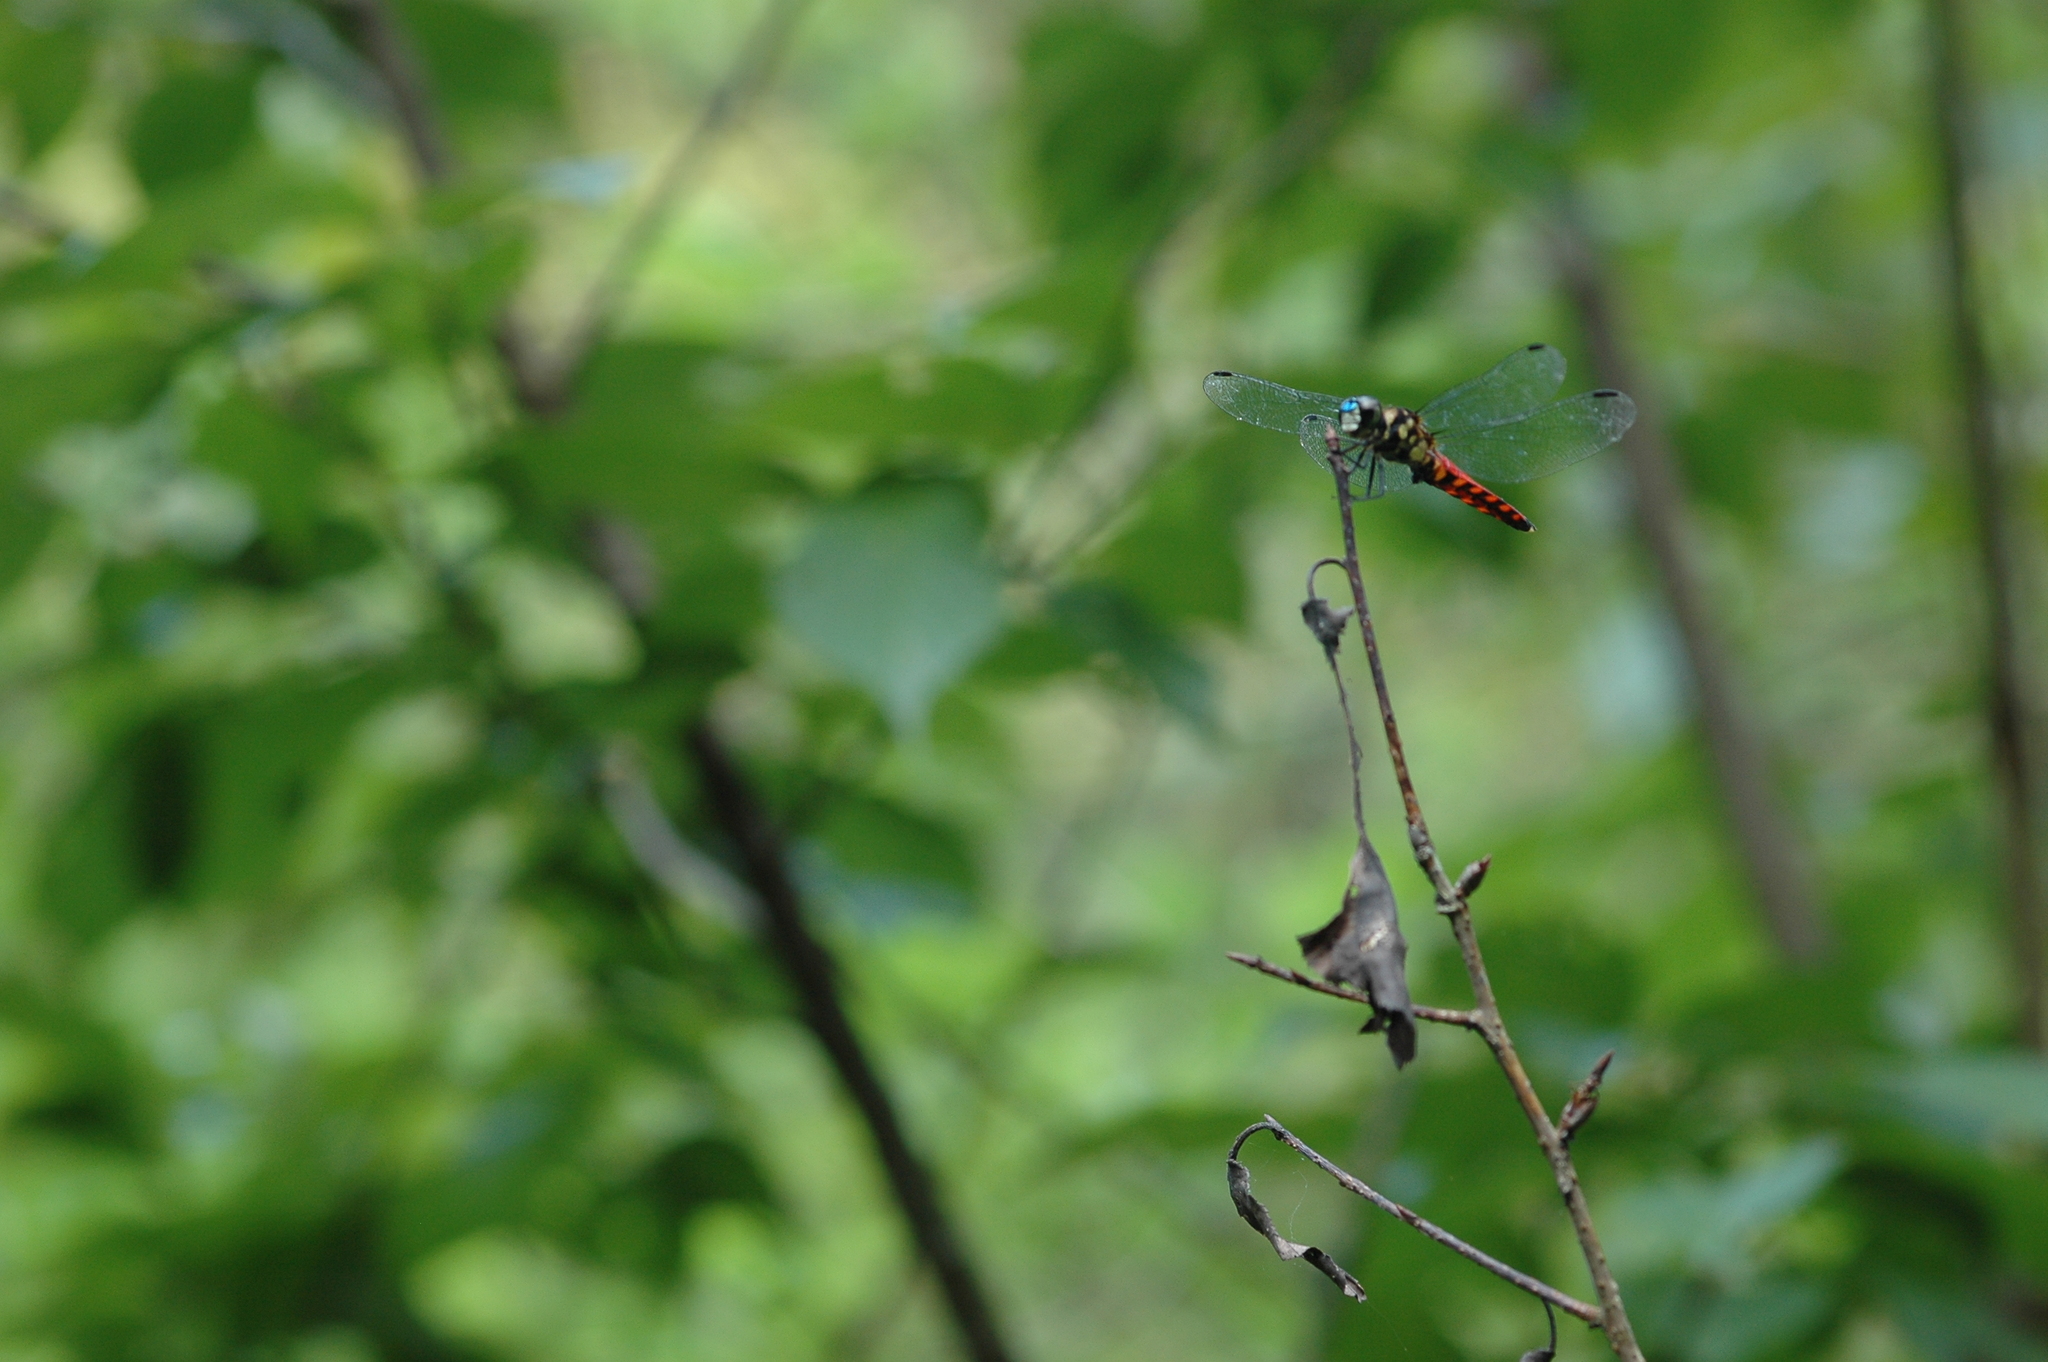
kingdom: Animalia
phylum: Arthropoda
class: Insecta
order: Odonata
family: Libellulidae
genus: Lyriothemis
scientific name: Lyriothemis elegantissima
